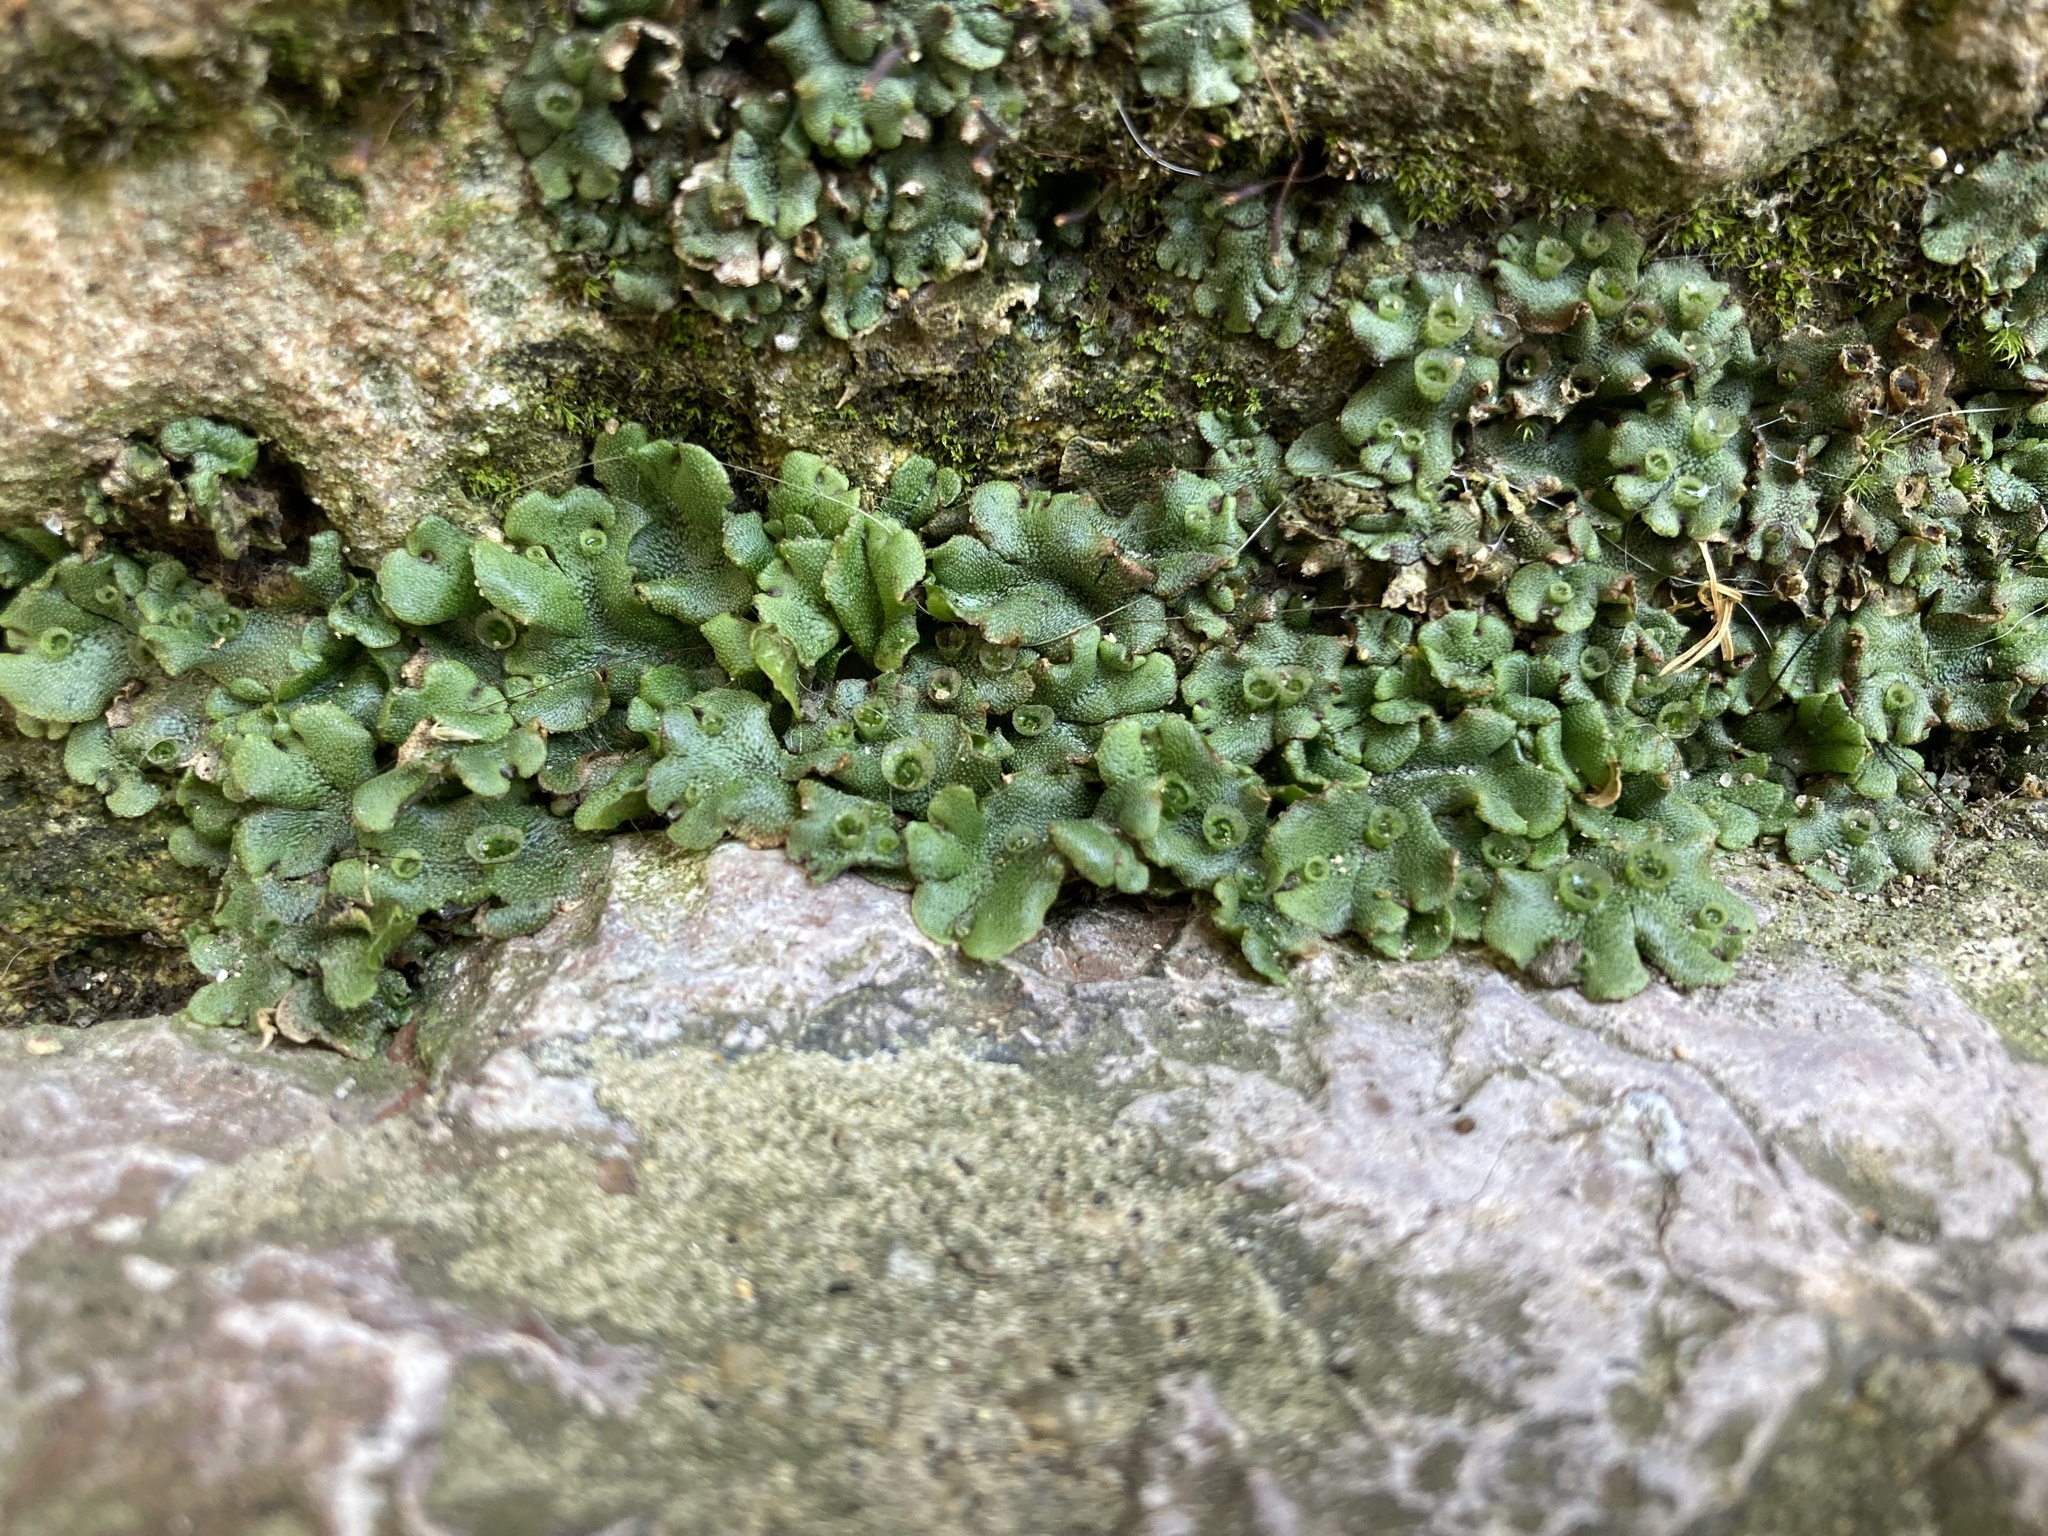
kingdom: Plantae
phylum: Marchantiophyta
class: Marchantiopsida
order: Marchantiales
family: Marchantiaceae
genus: Marchantia
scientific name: Marchantia polymorpha
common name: Common liverwort
